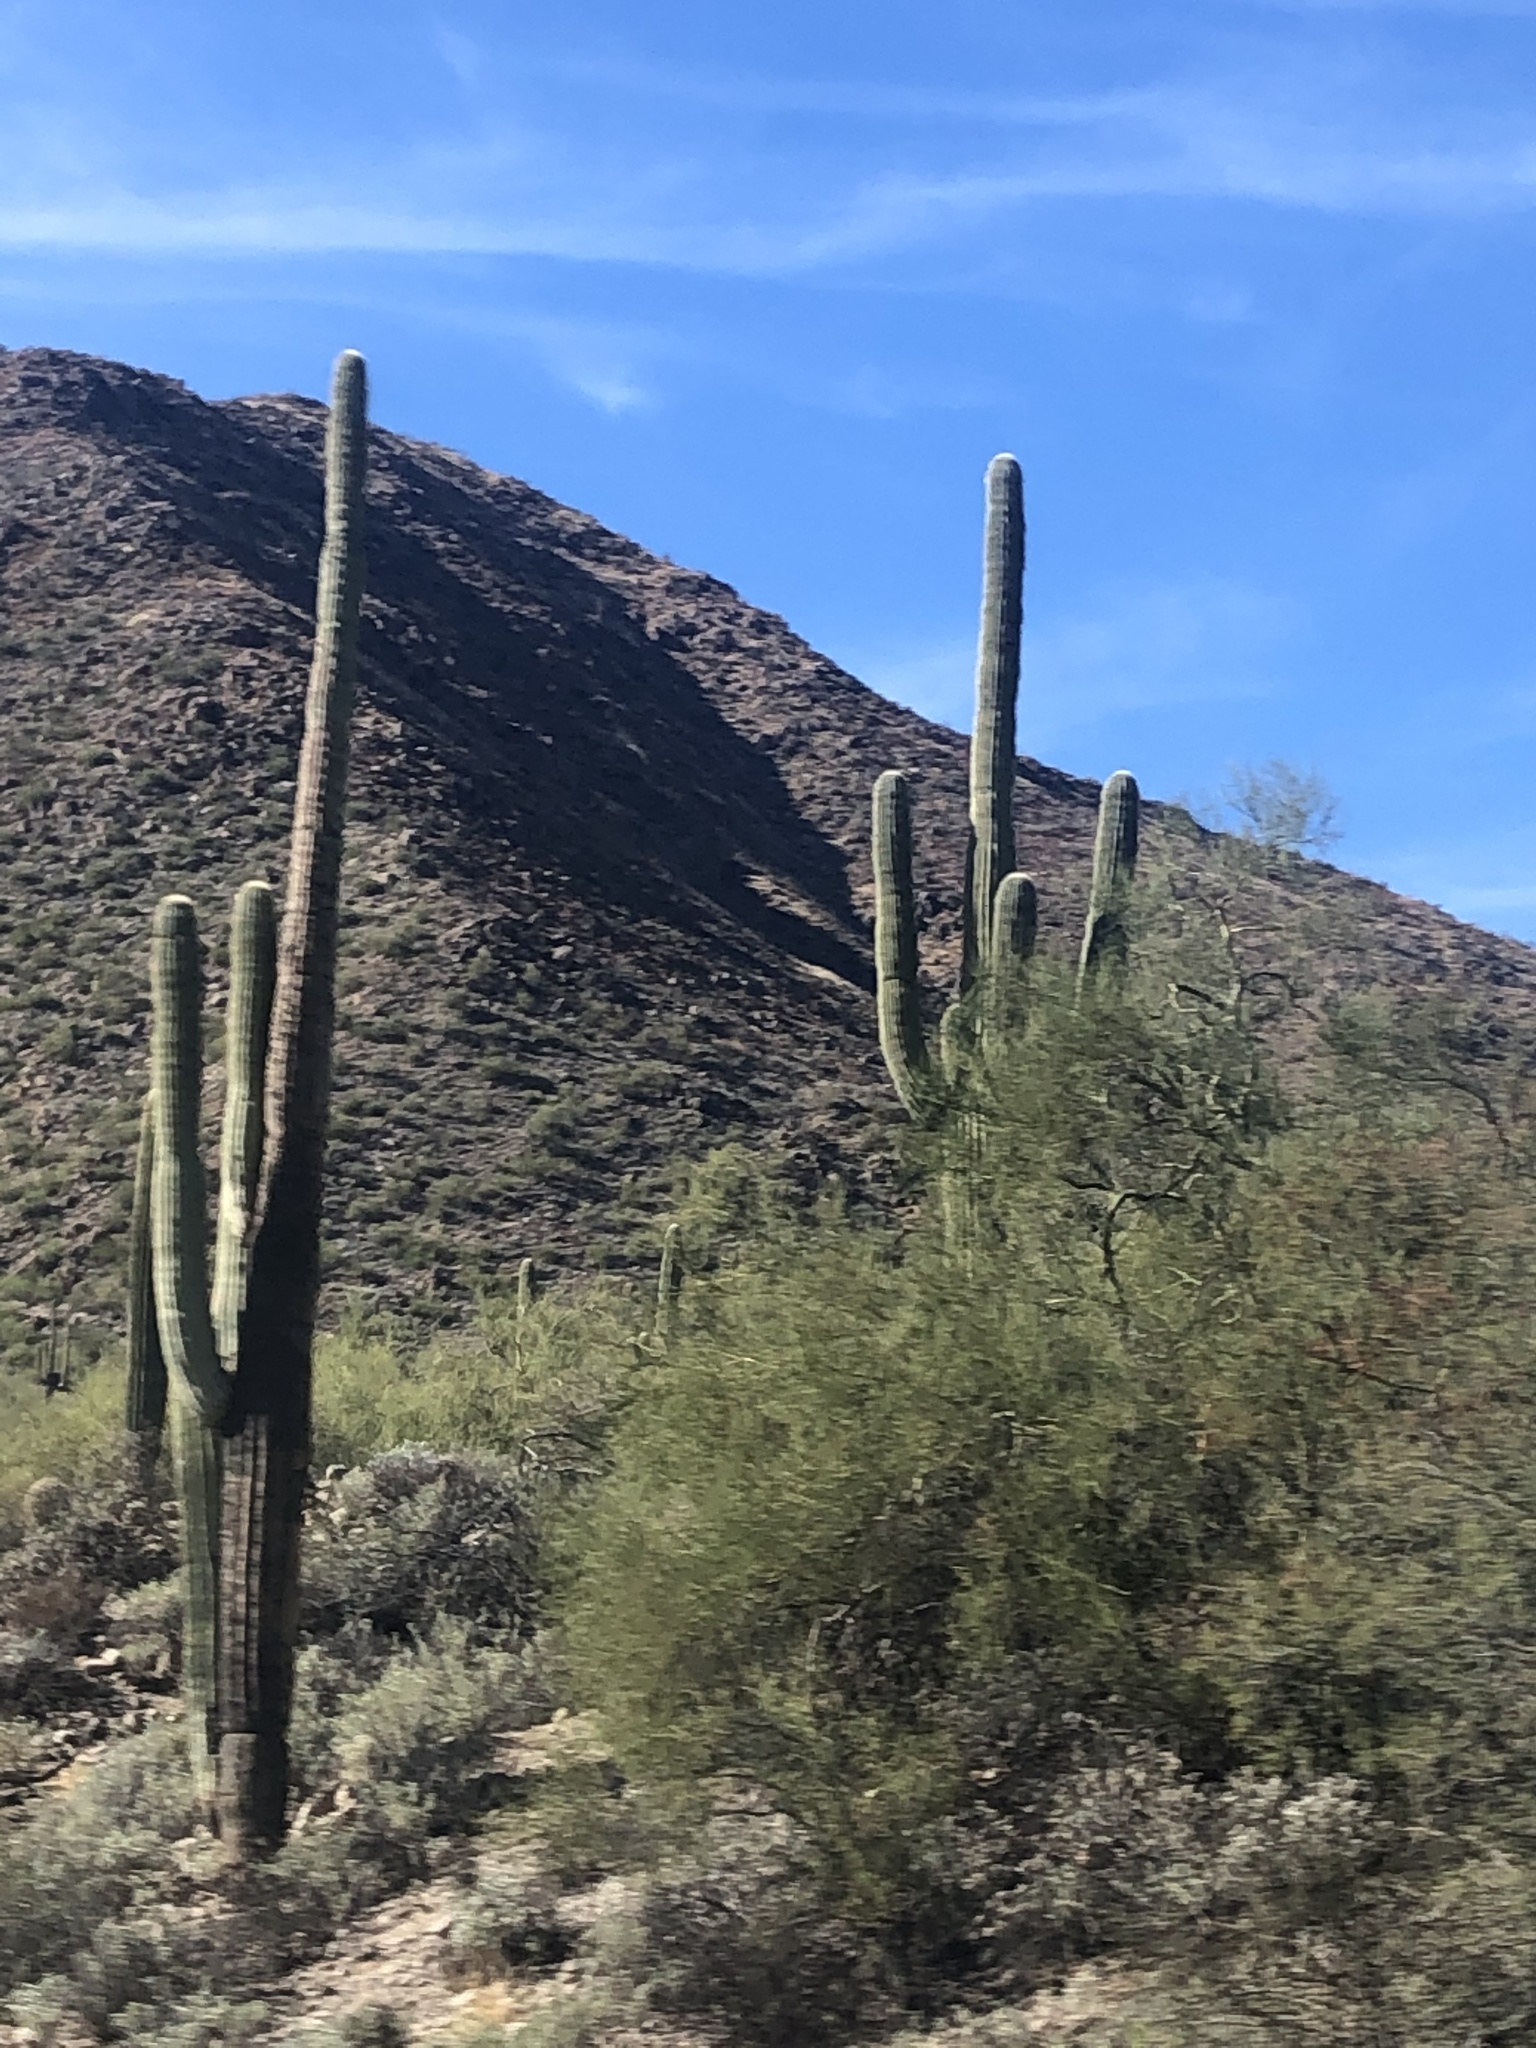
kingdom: Plantae
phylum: Tracheophyta
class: Magnoliopsida
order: Caryophyllales
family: Cactaceae
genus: Carnegiea
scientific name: Carnegiea gigantea
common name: Saguaro
